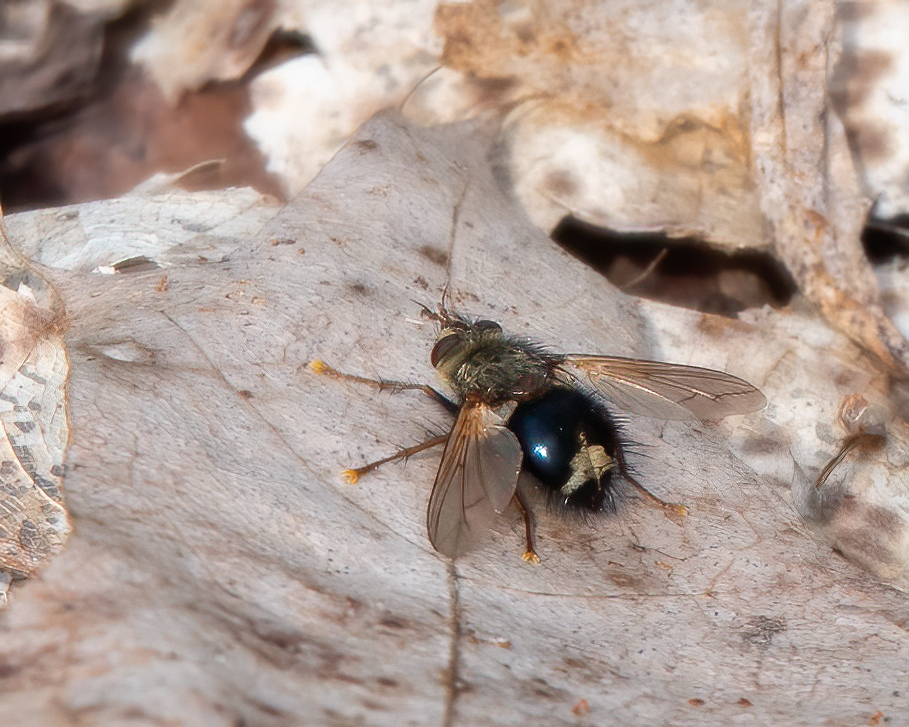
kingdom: Animalia
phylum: Arthropoda
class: Insecta
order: Diptera
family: Tachinidae
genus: Epalpus
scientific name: Epalpus signifer
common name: Early tachinid fly
